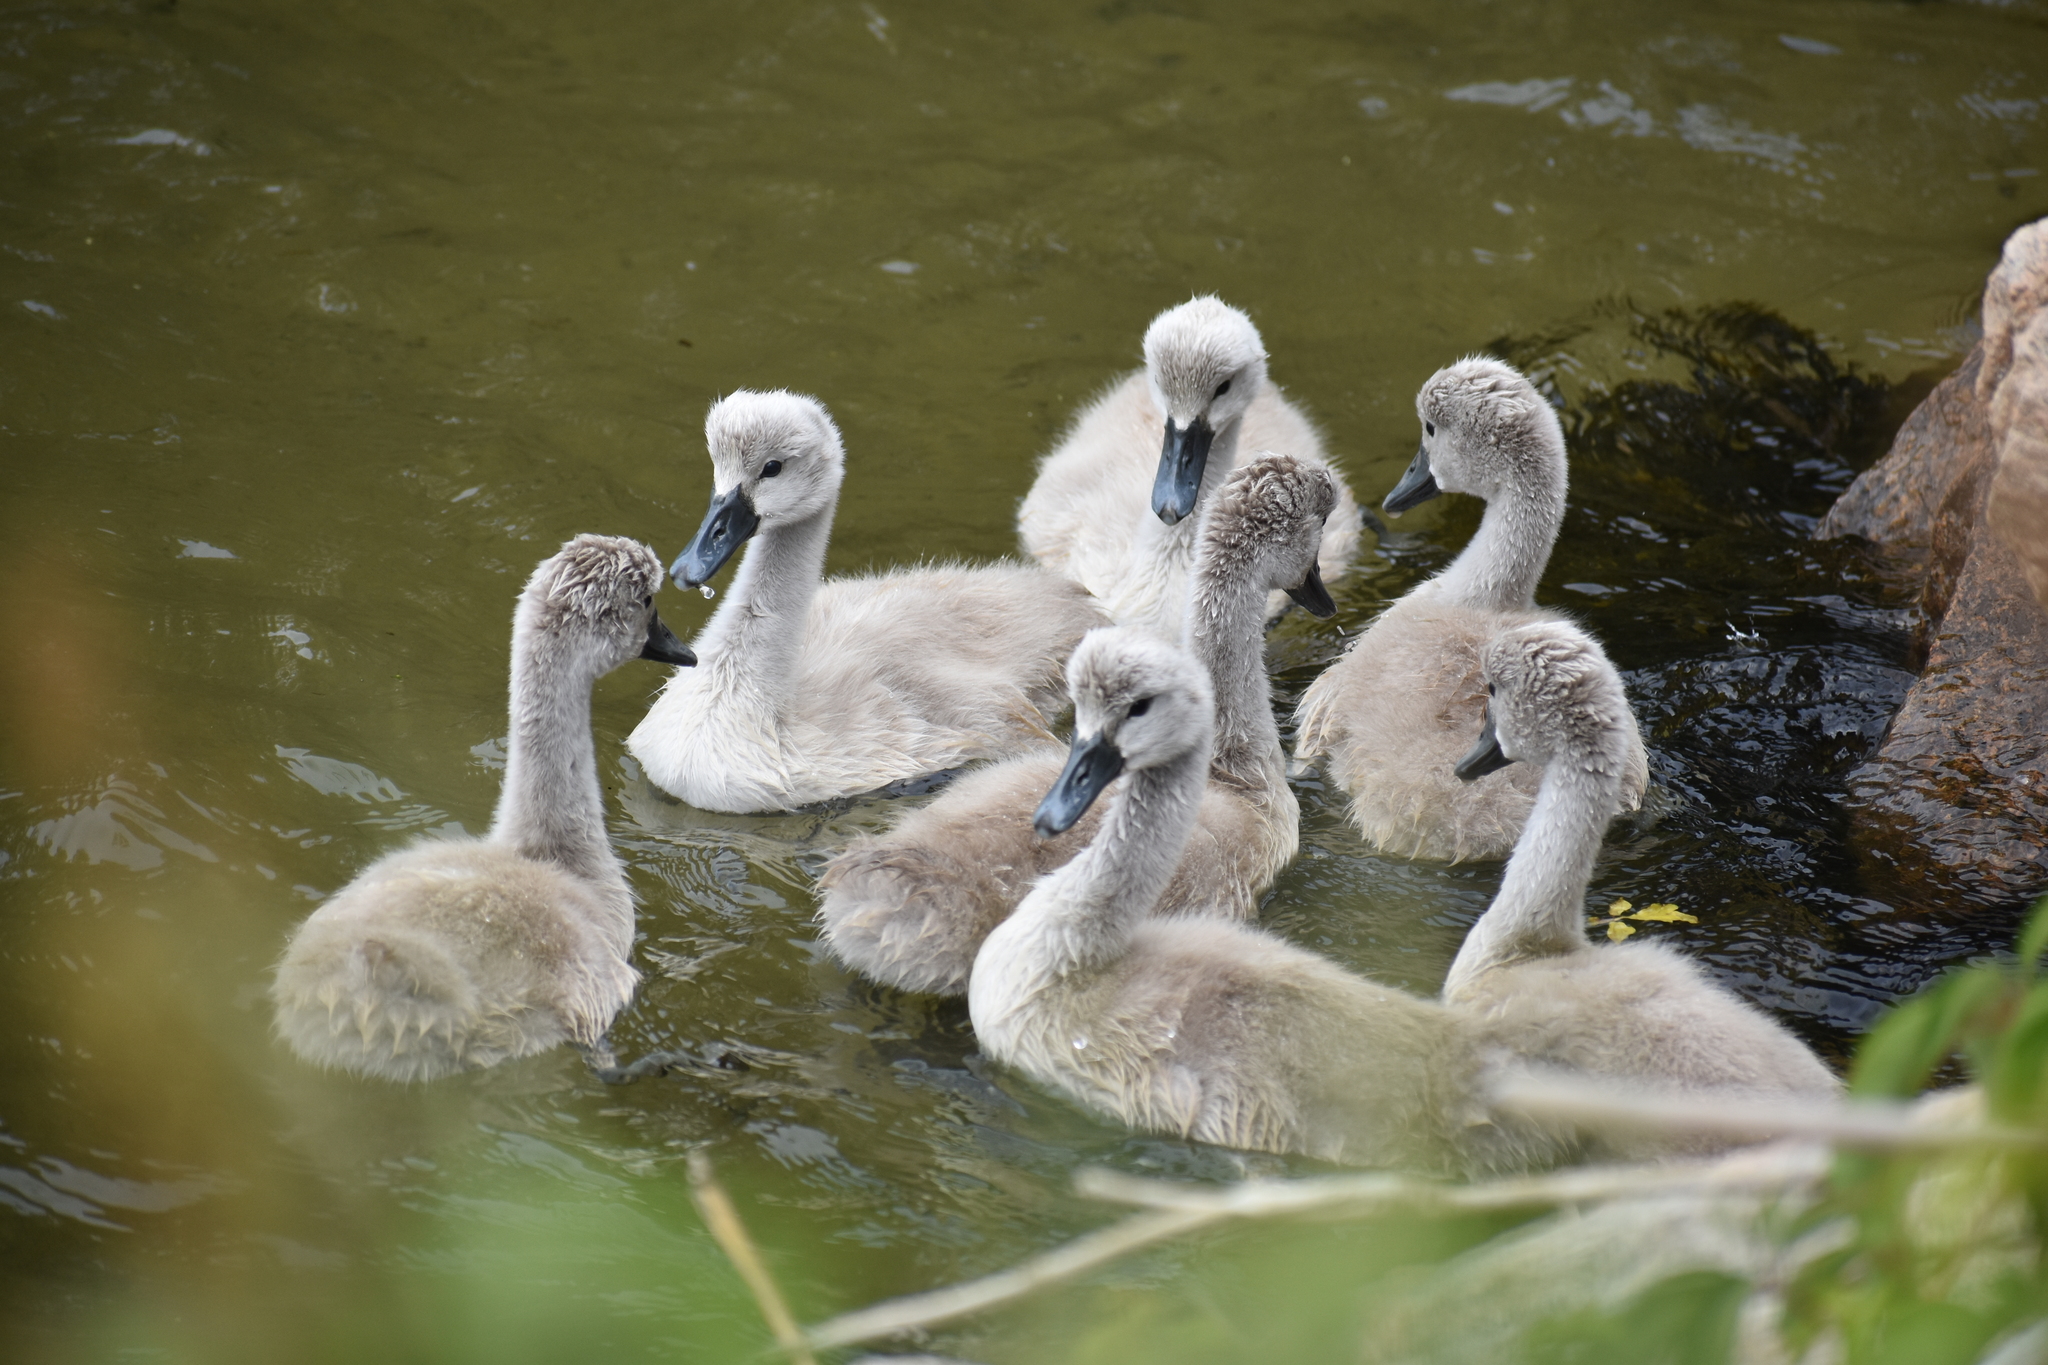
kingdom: Animalia
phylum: Chordata
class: Aves
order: Anseriformes
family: Anatidae
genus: Cygnus
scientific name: Cygnus olor
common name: Mute swan
